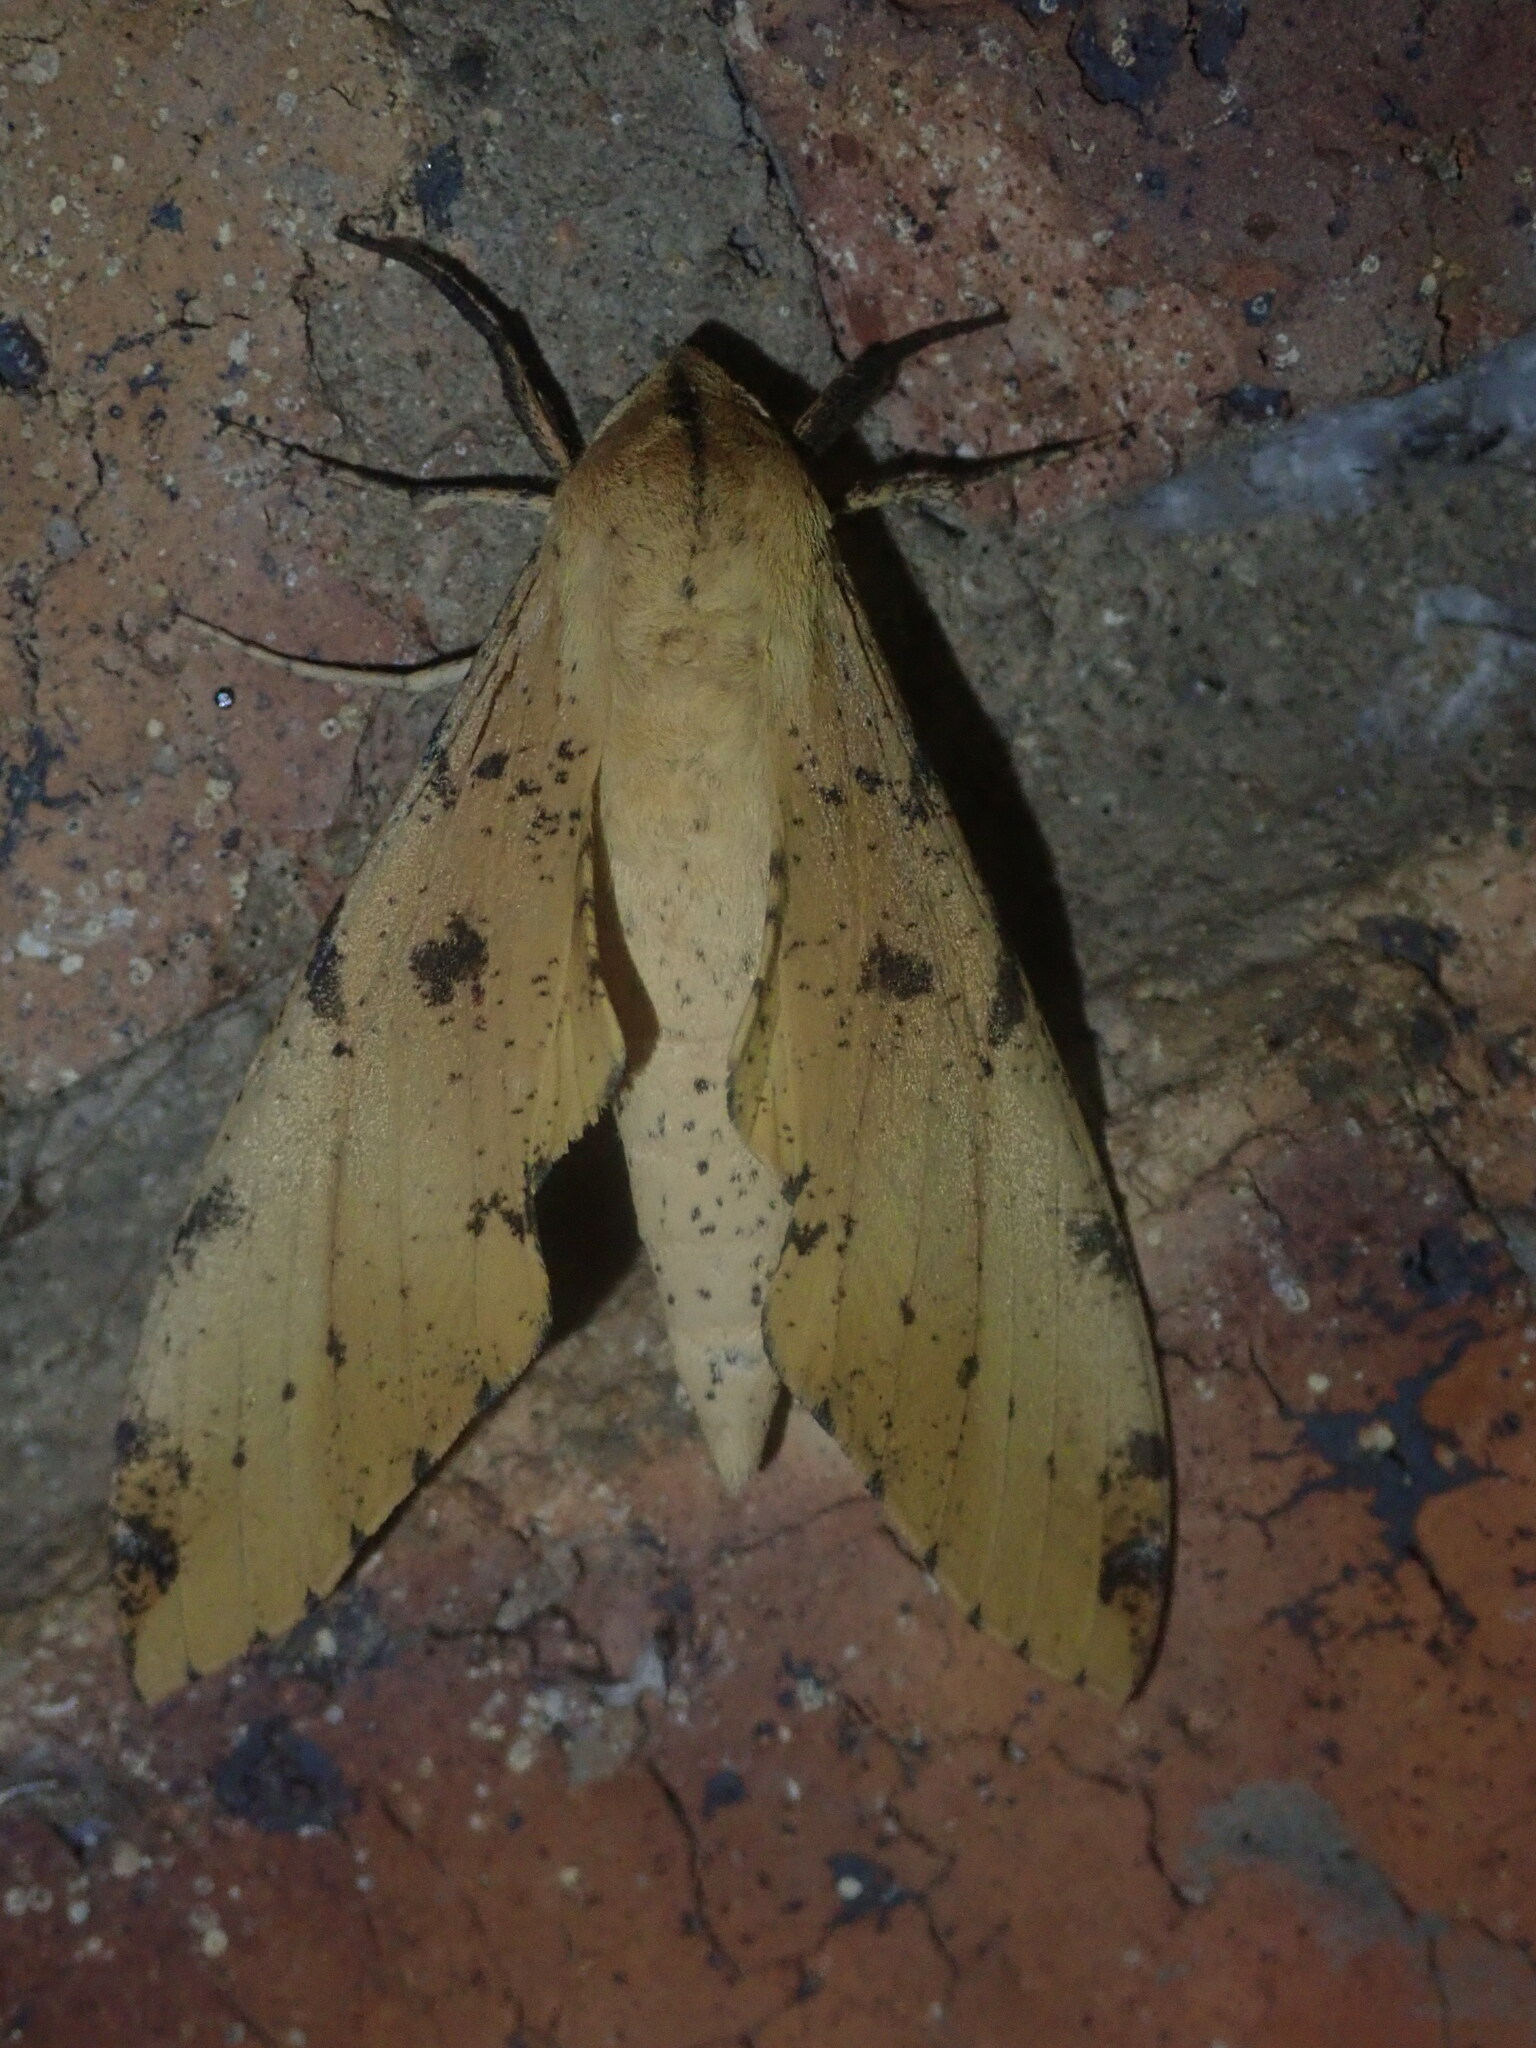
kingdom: Animalia
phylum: Arthropoda
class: Insecta
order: Lepidoptera
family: Sphingidae
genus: Platysphinx
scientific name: Platysphinx piabilis
